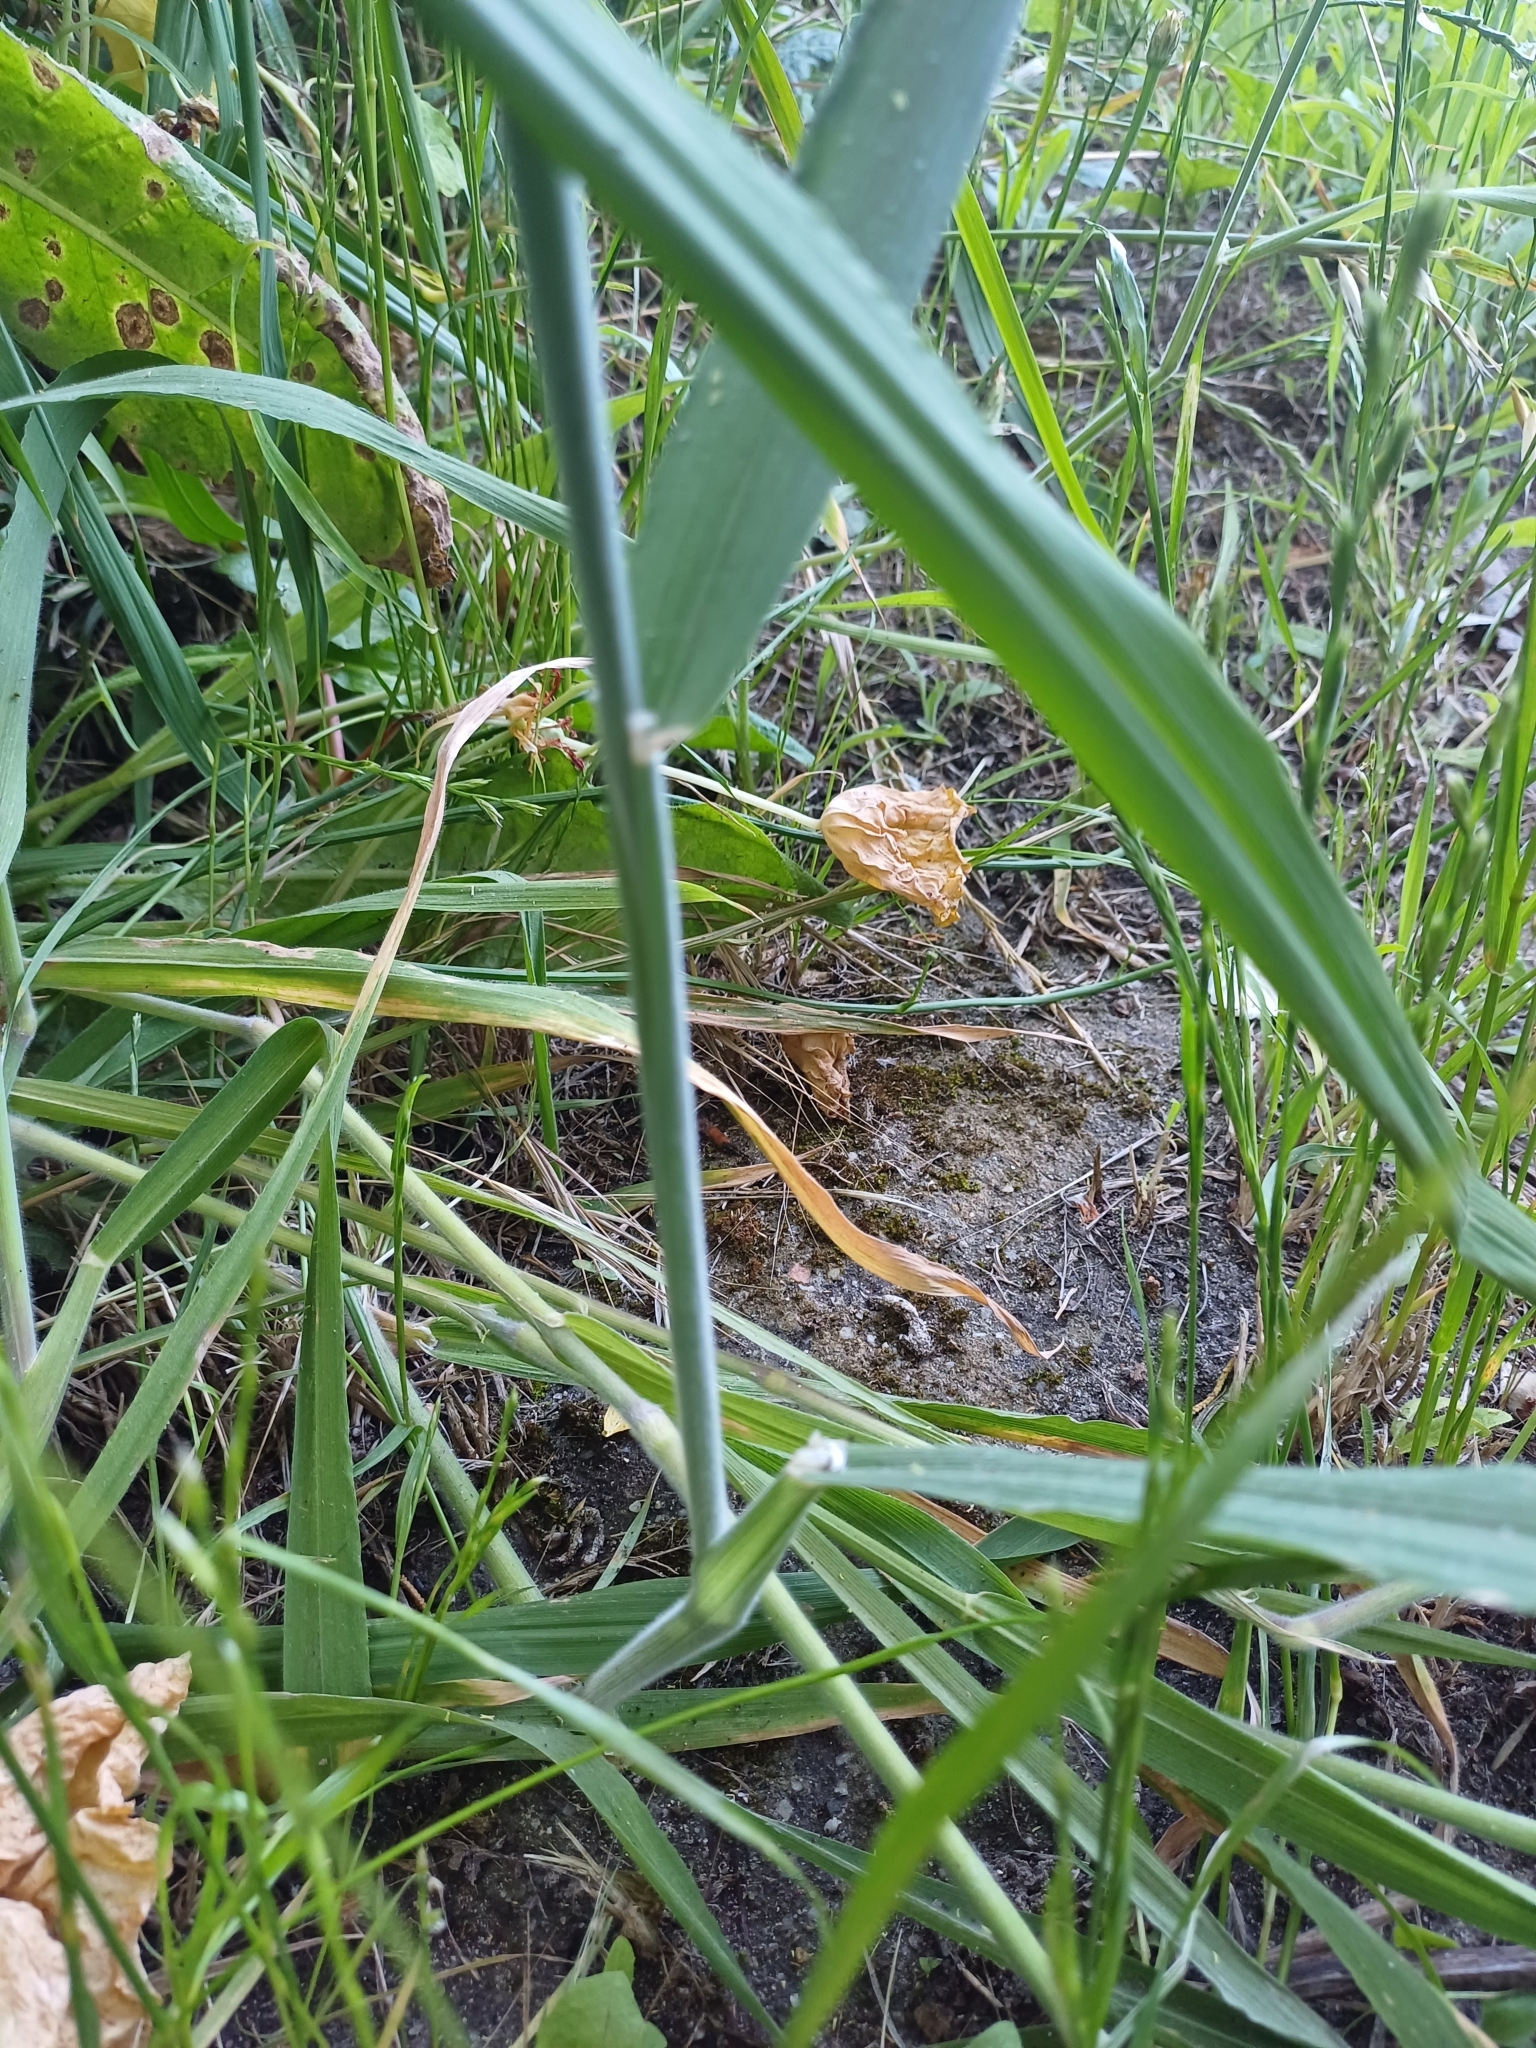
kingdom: Plantae
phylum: Tracheophyta
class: Liliopsida
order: Poales
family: Poaceae
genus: Holcus
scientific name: Holcus lanatus
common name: Yorkshire-fog
